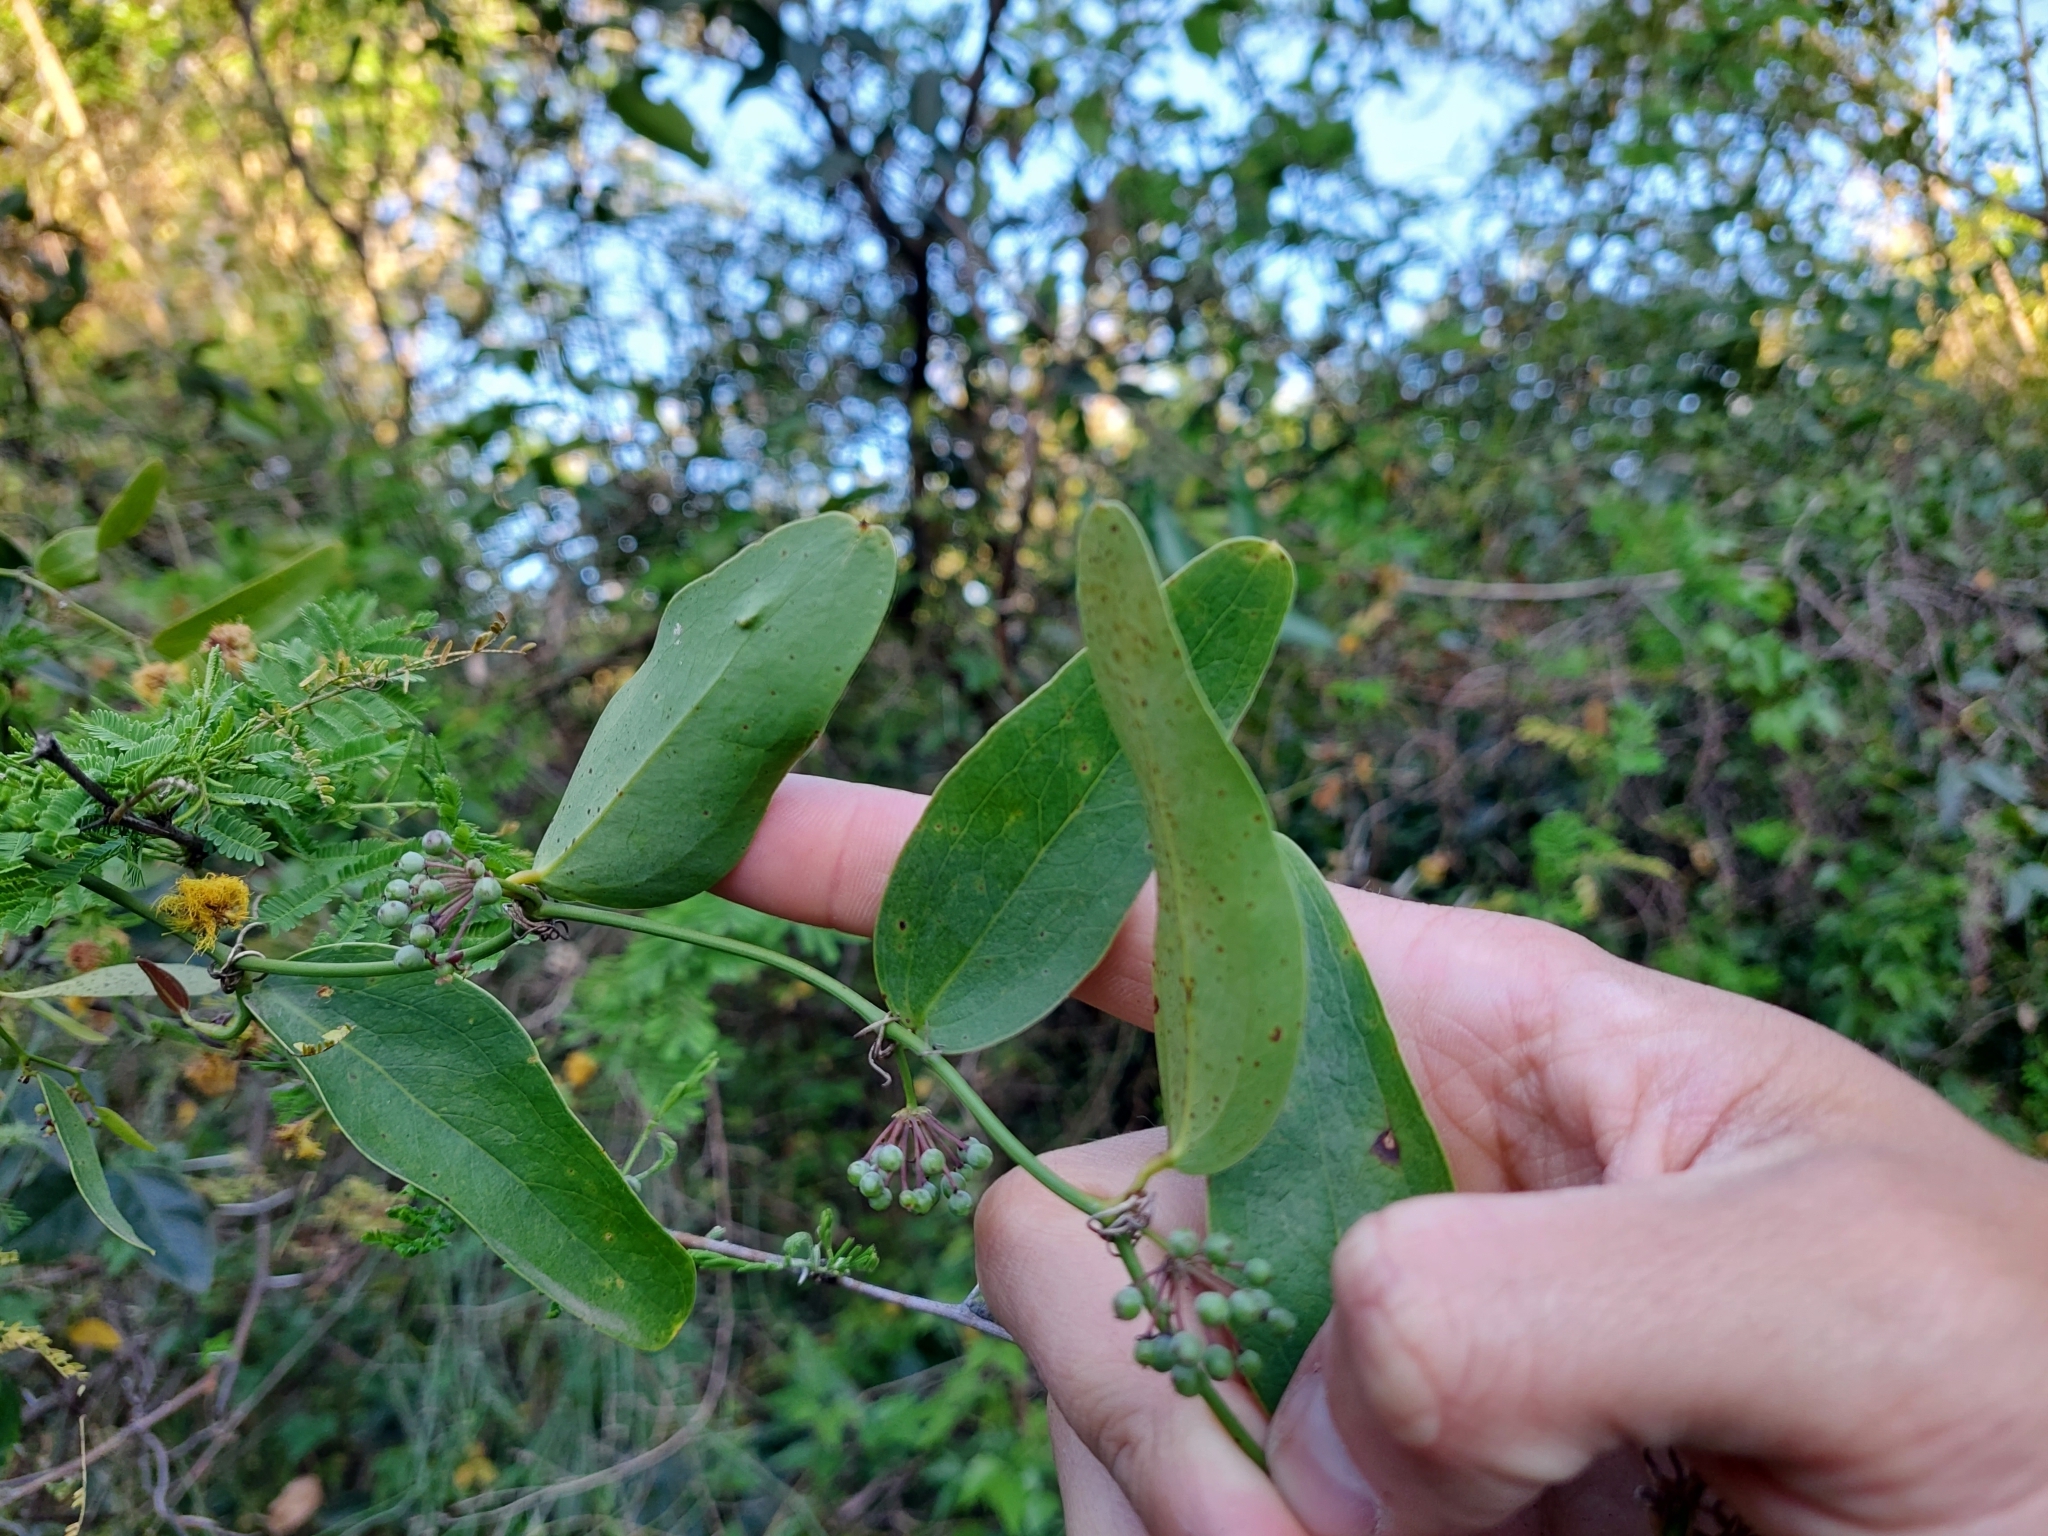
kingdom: Plantae
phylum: Tracheophyta
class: Liliopsida
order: Liliales
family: Smilacaceae
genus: Smilax
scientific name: Smilax campestris
